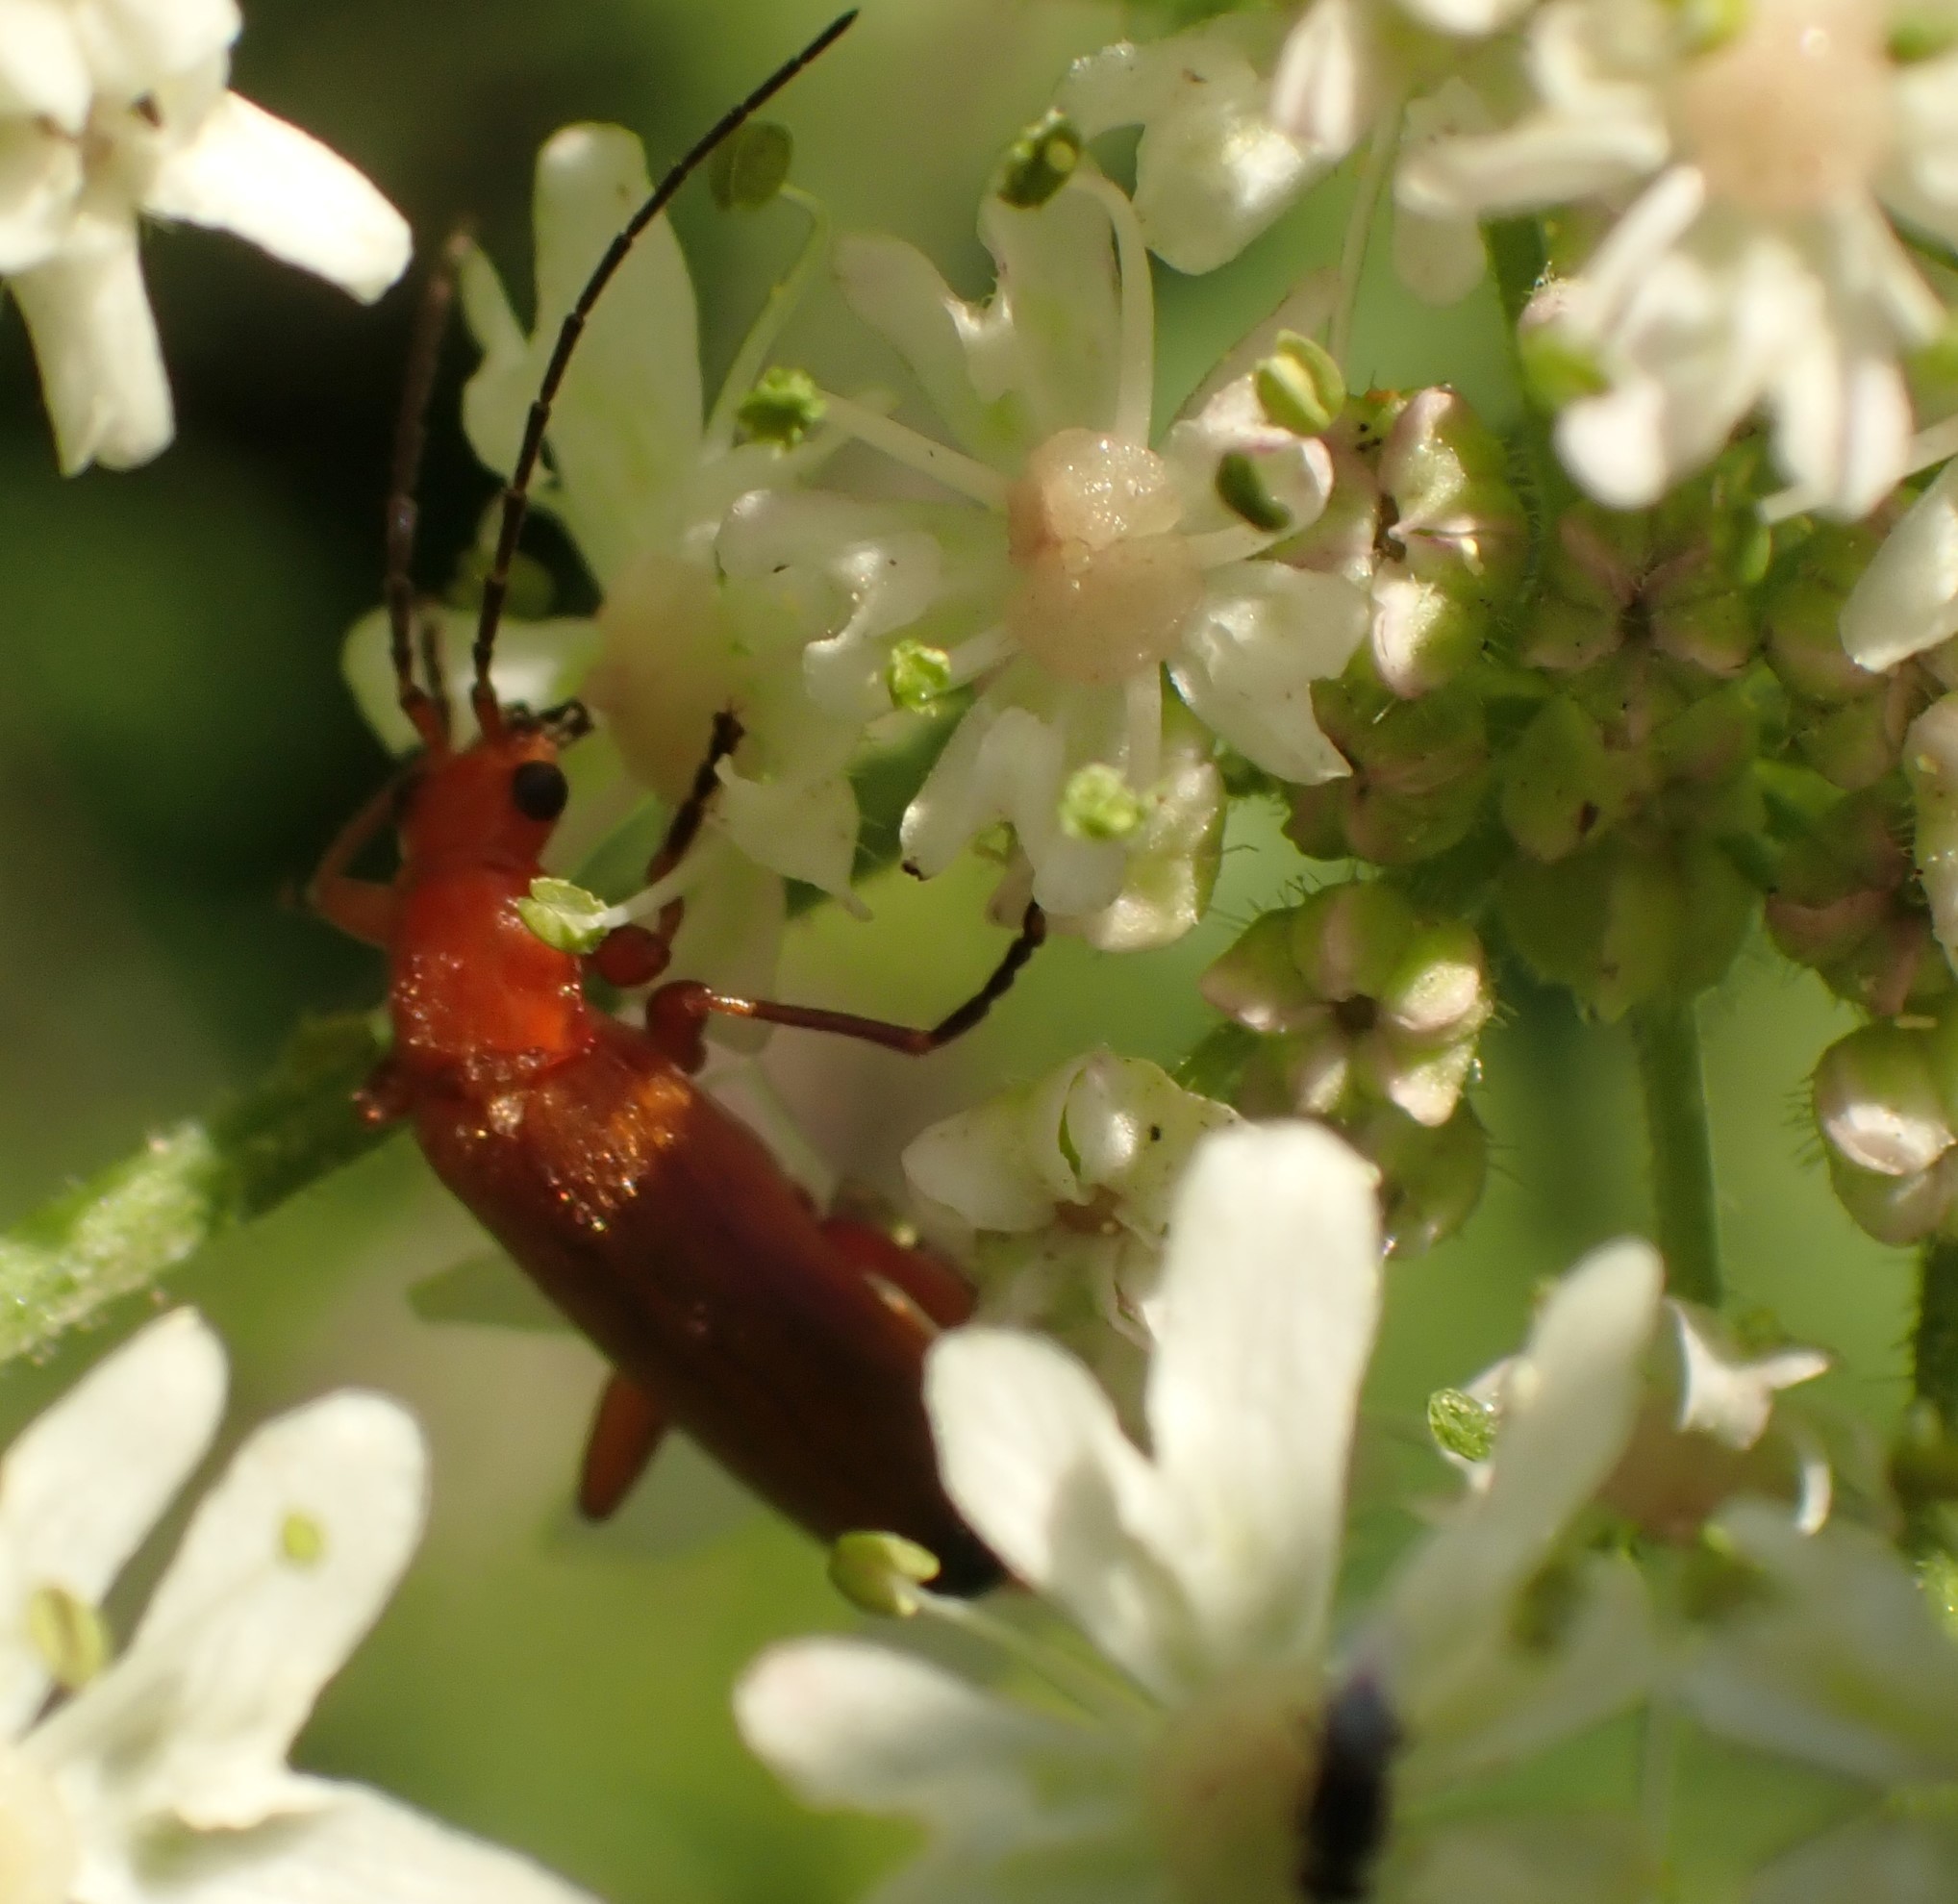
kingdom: Animalia
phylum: Arthropoda
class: Insecta
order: Coleoptera
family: Cantharidae
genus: Rhagonycha
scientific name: Rhagonycha fulva
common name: Common red soldier beetle
